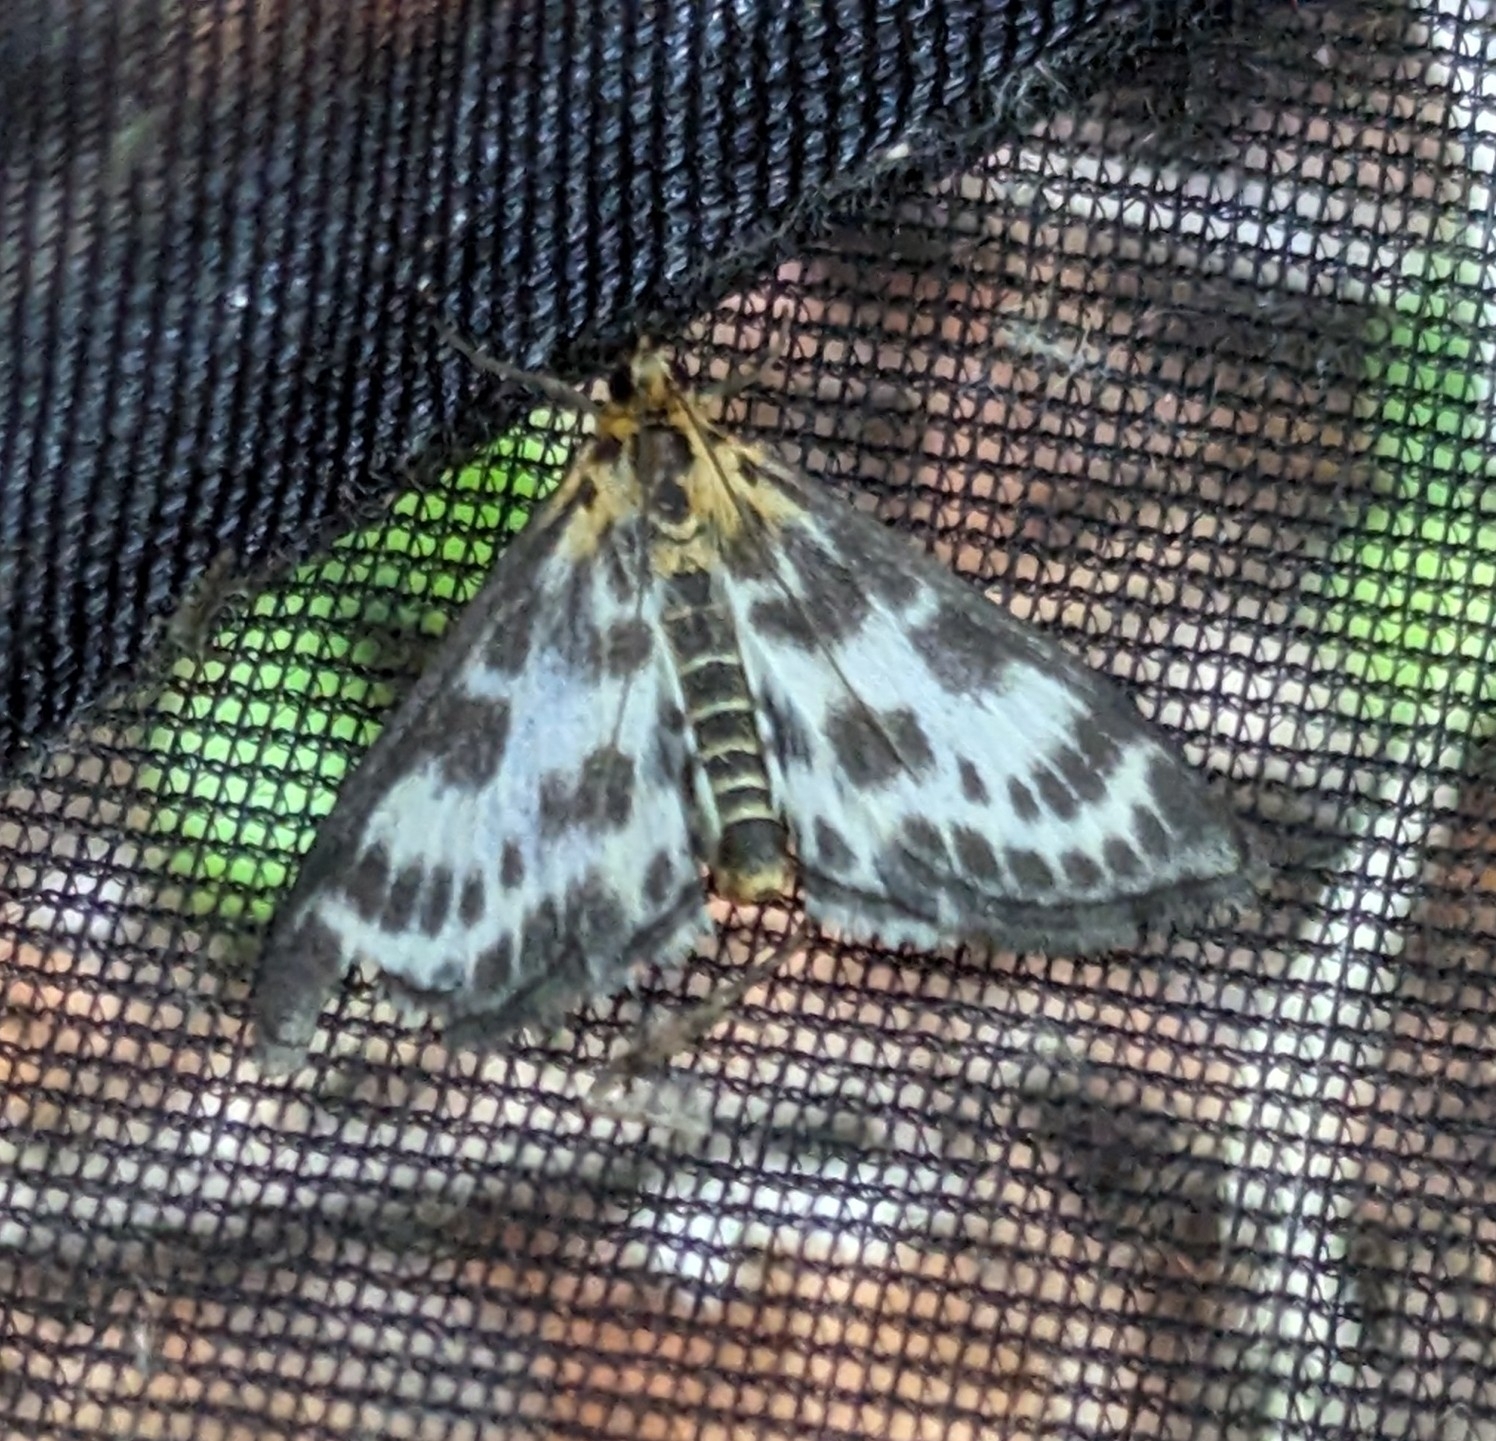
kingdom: Animalia
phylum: Arthropoda
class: Insecta
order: Lepidoptera
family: Crambidae
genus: Anania
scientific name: Anania hortulata
